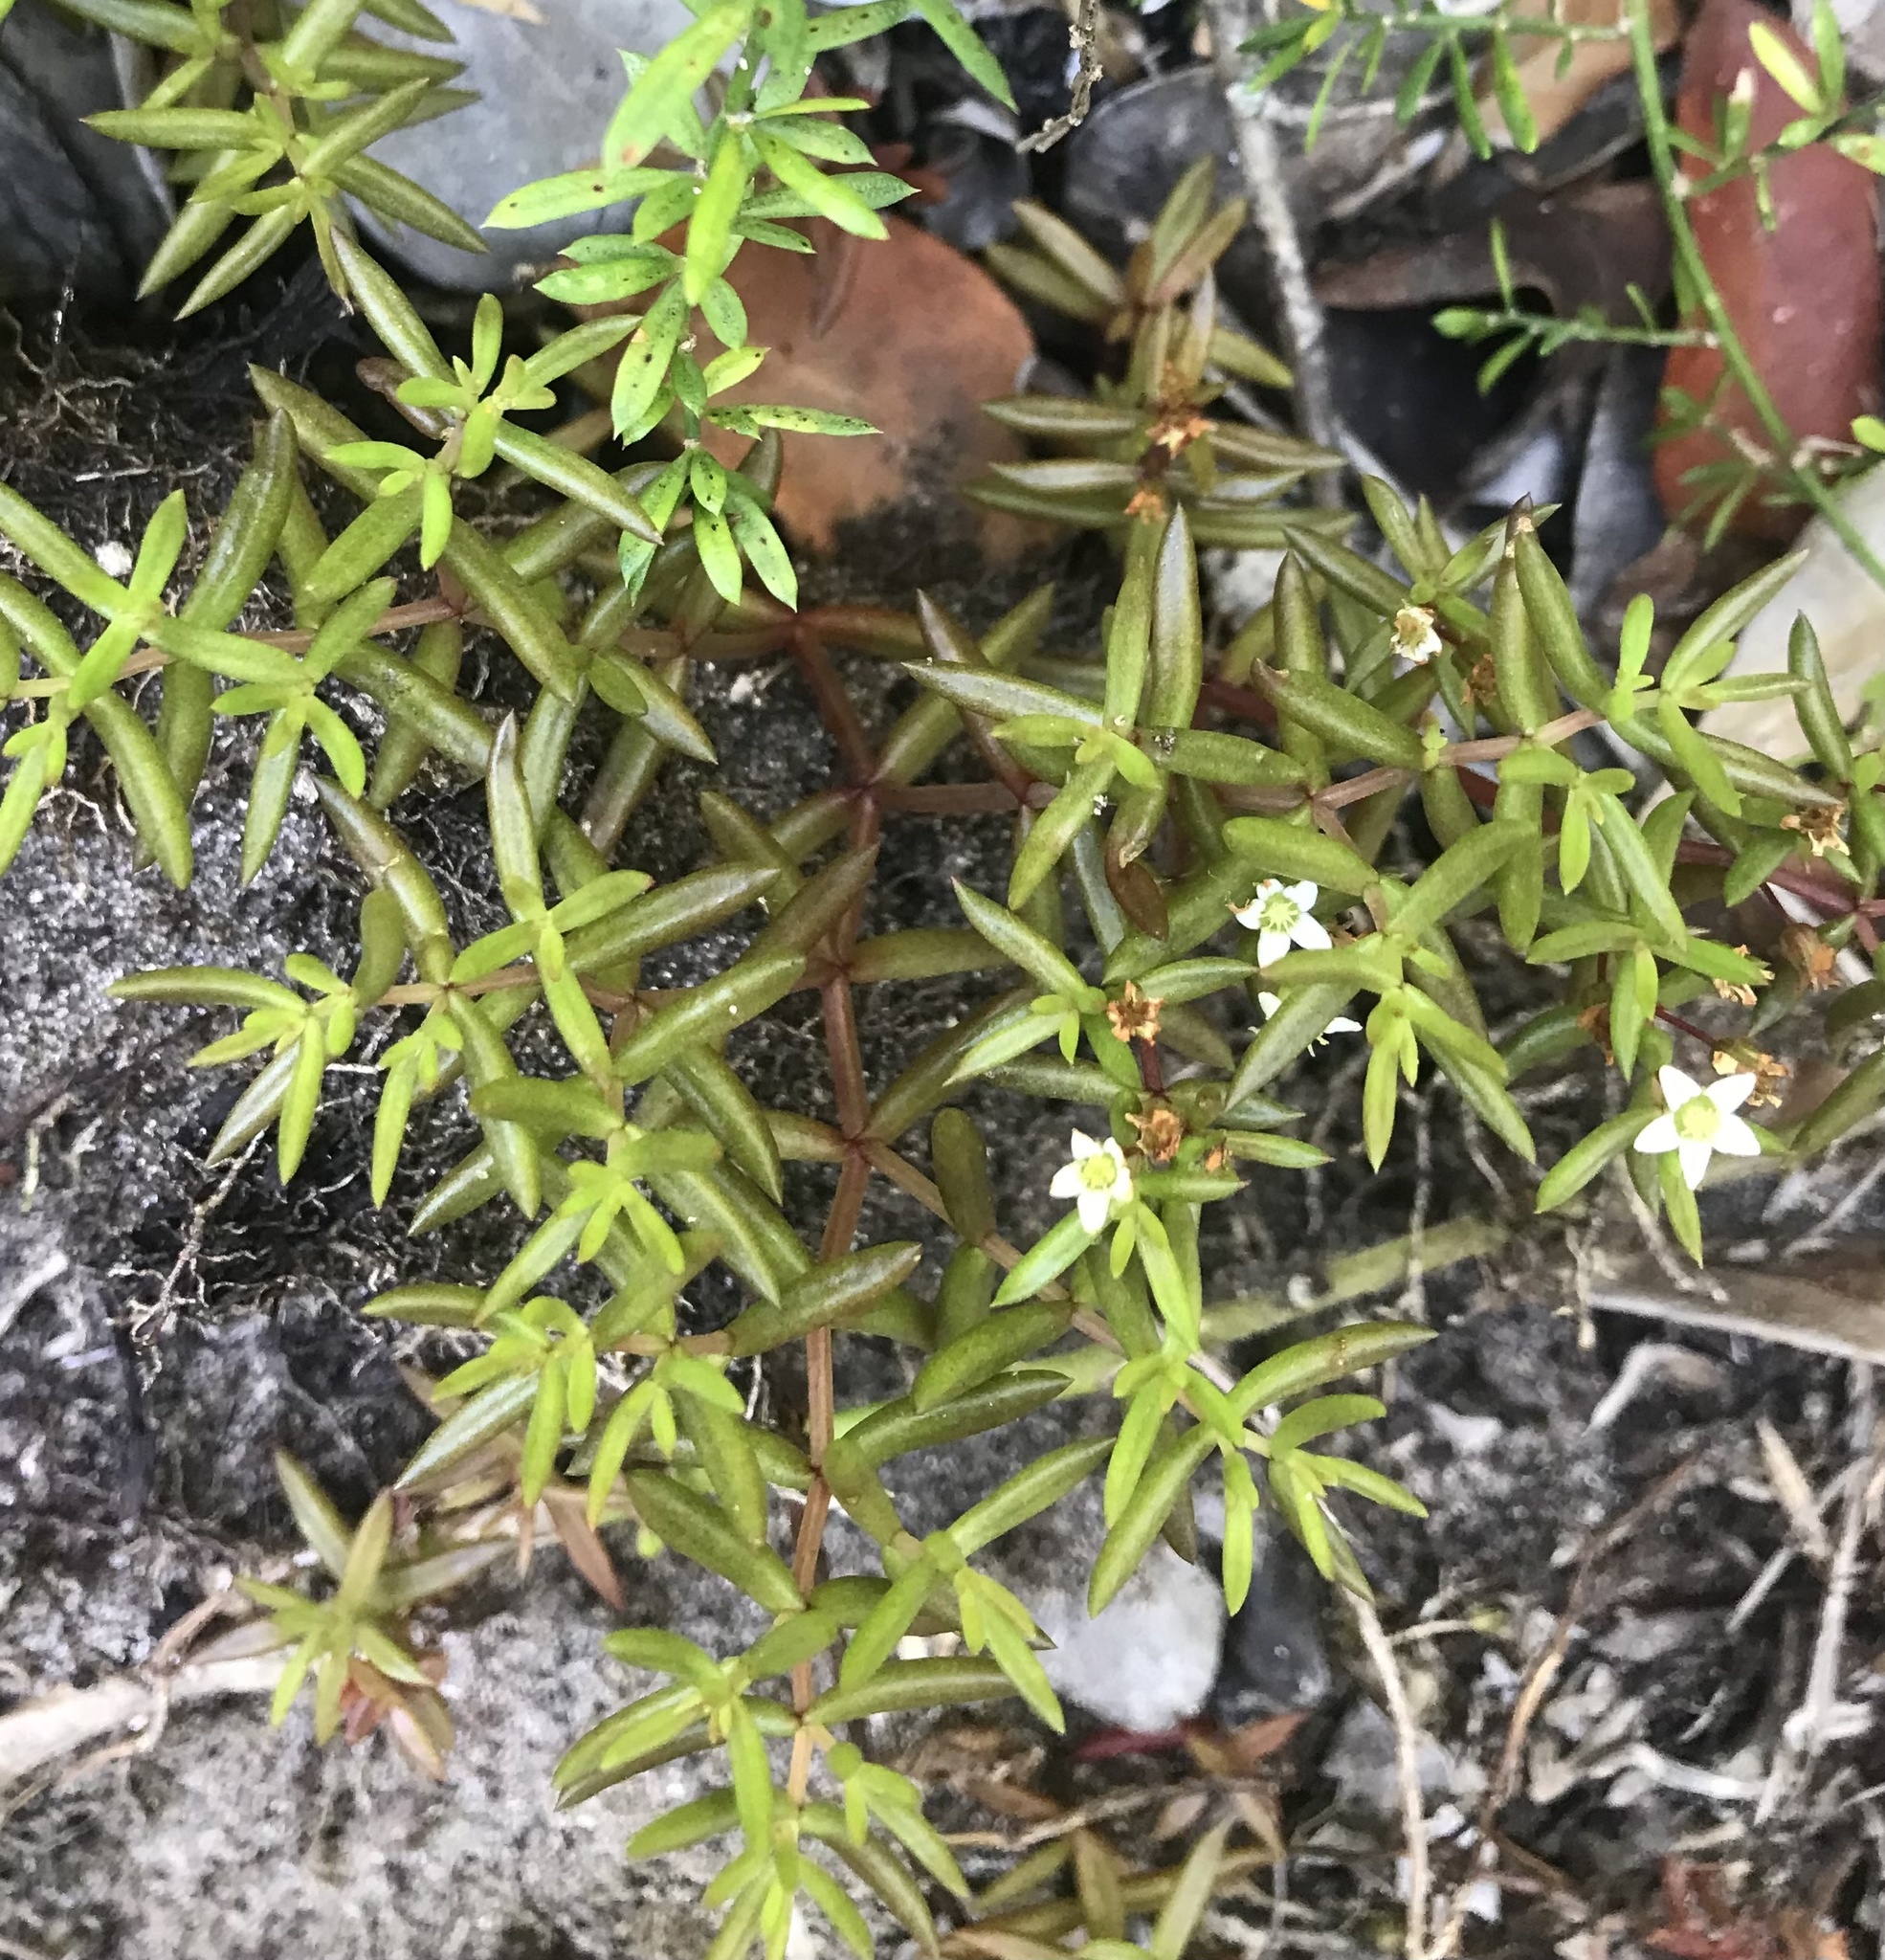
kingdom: Plantae
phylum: Tracheophyta
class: Magnoliopsida
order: Saxifragales
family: Crassulaceae
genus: Crassula
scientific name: Crassula expansa
